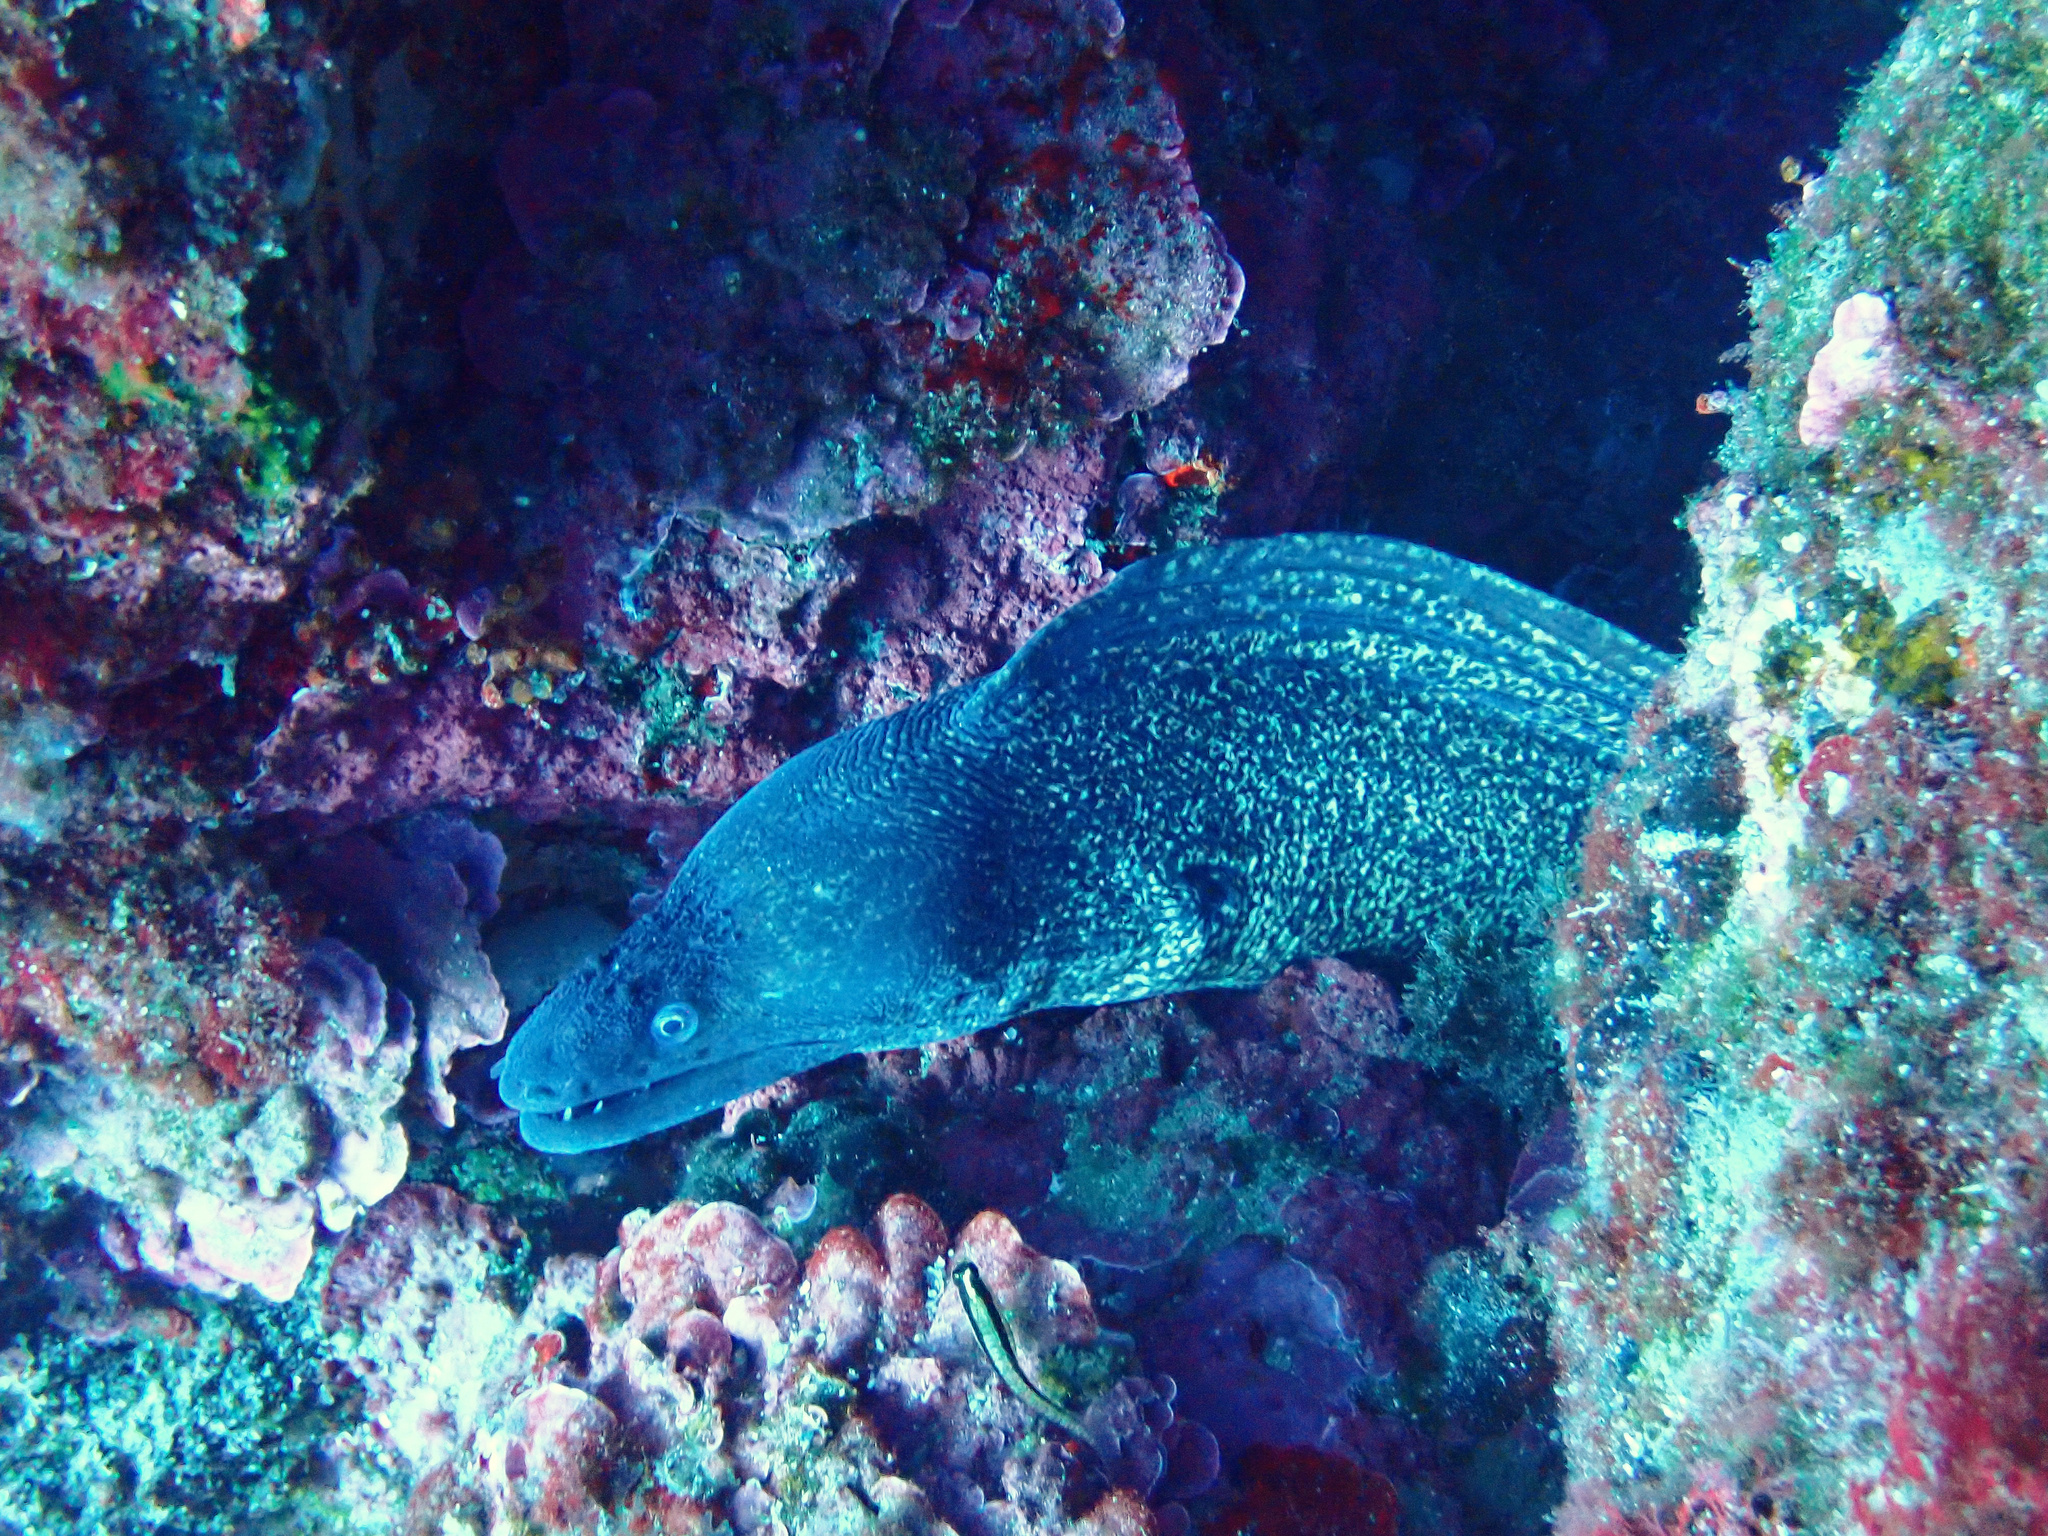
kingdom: Animalia
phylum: Chordata
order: Anguilliformes
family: Muraenidae
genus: Muraena
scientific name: Muraena helena
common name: Mediterranean moray
